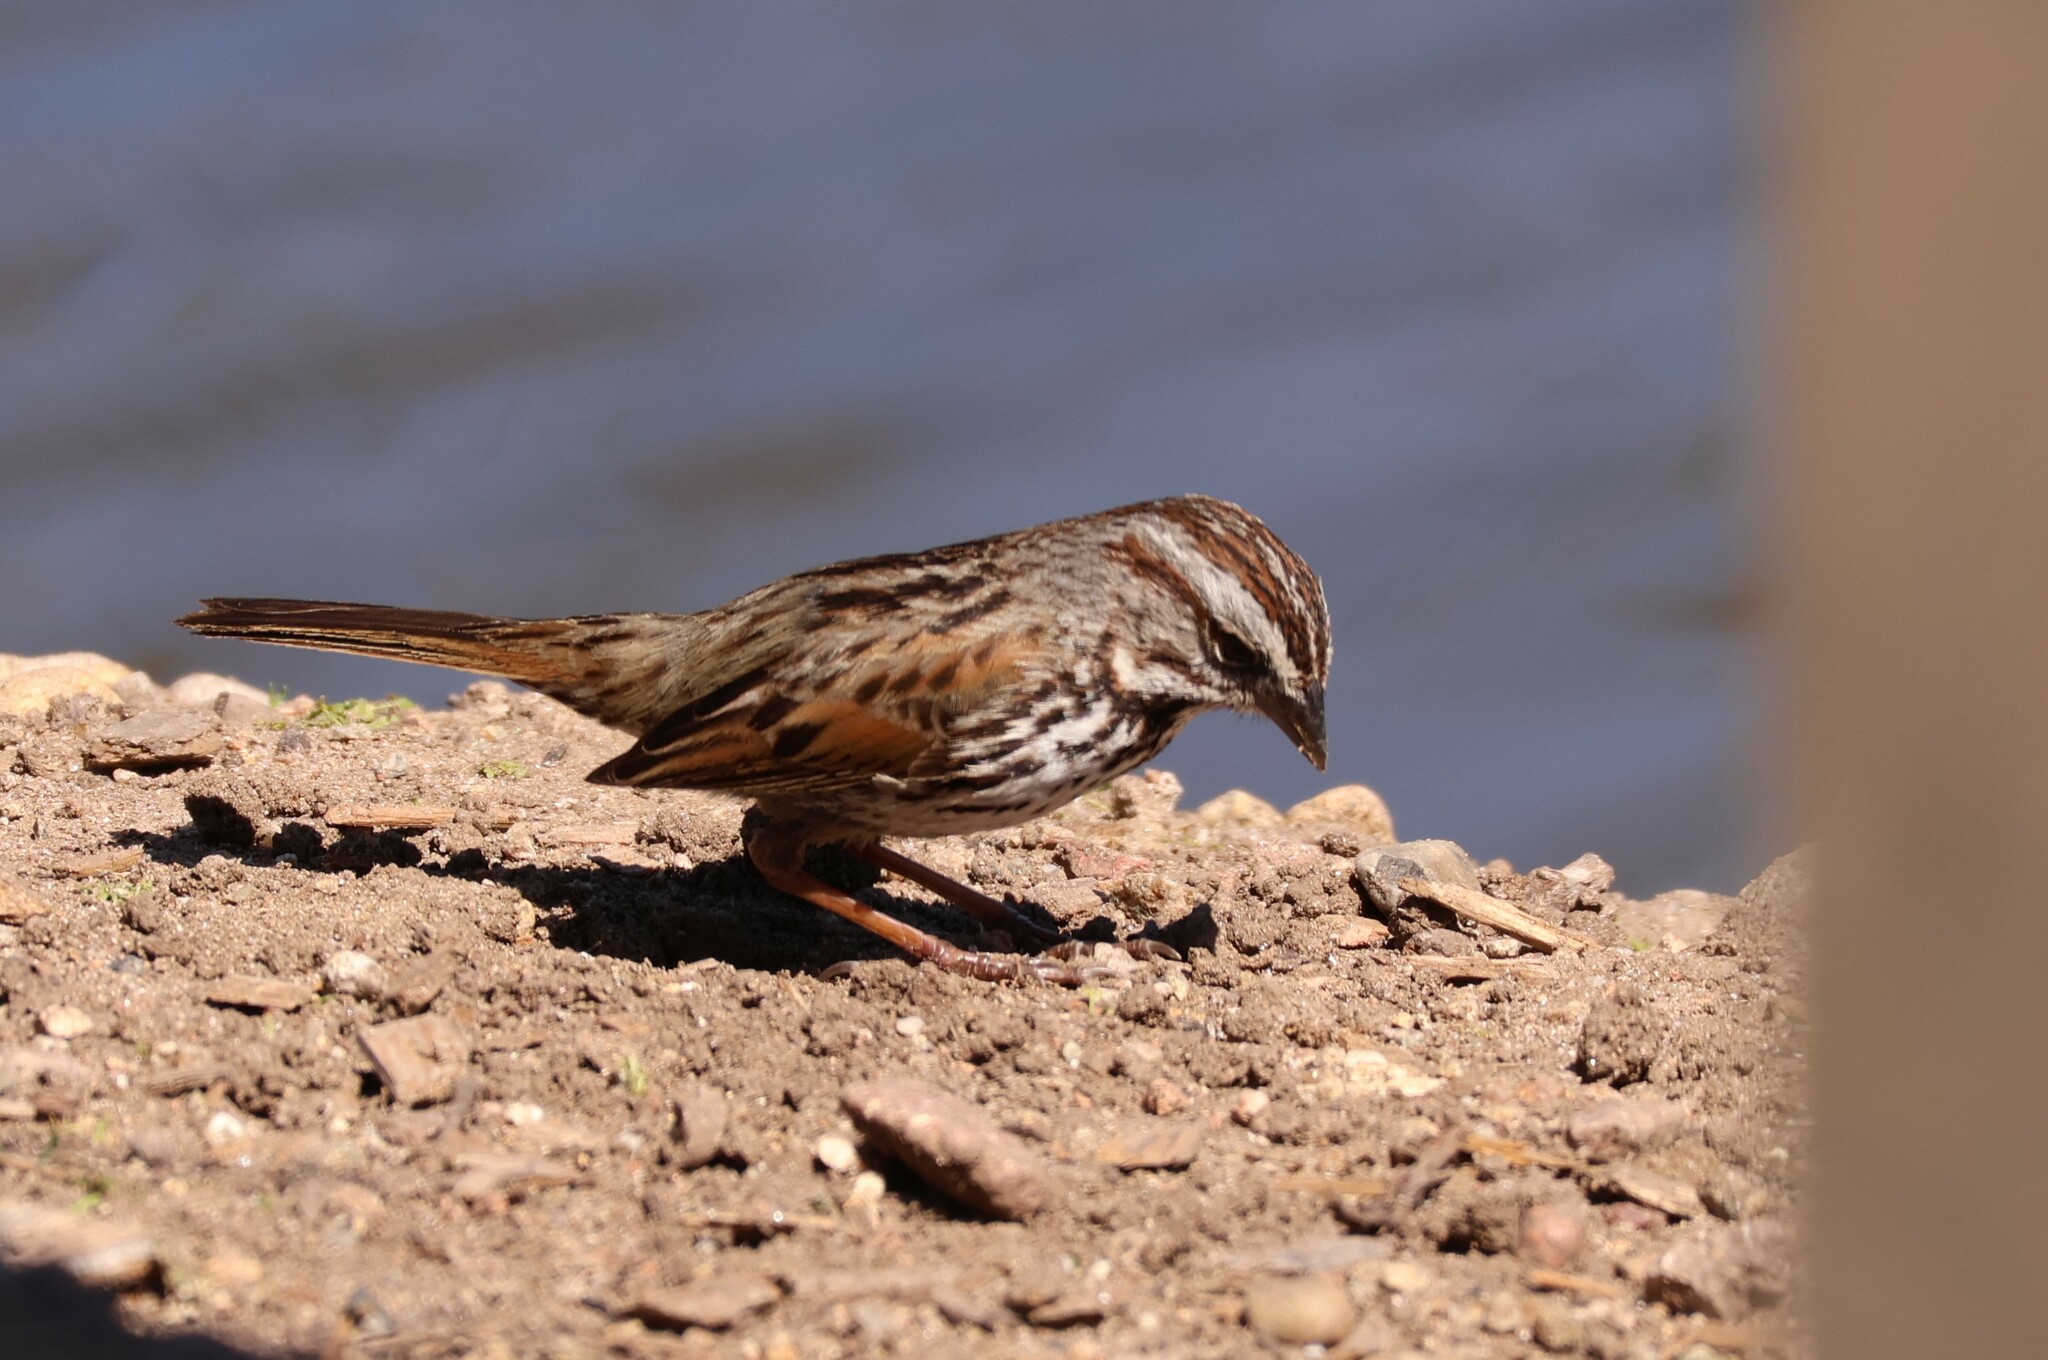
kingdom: Animalia
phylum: Chordata
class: Aves
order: Passeriformes
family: Passerellidae
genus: Melospiza
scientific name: Melospiza melodia
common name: Song sparrow
